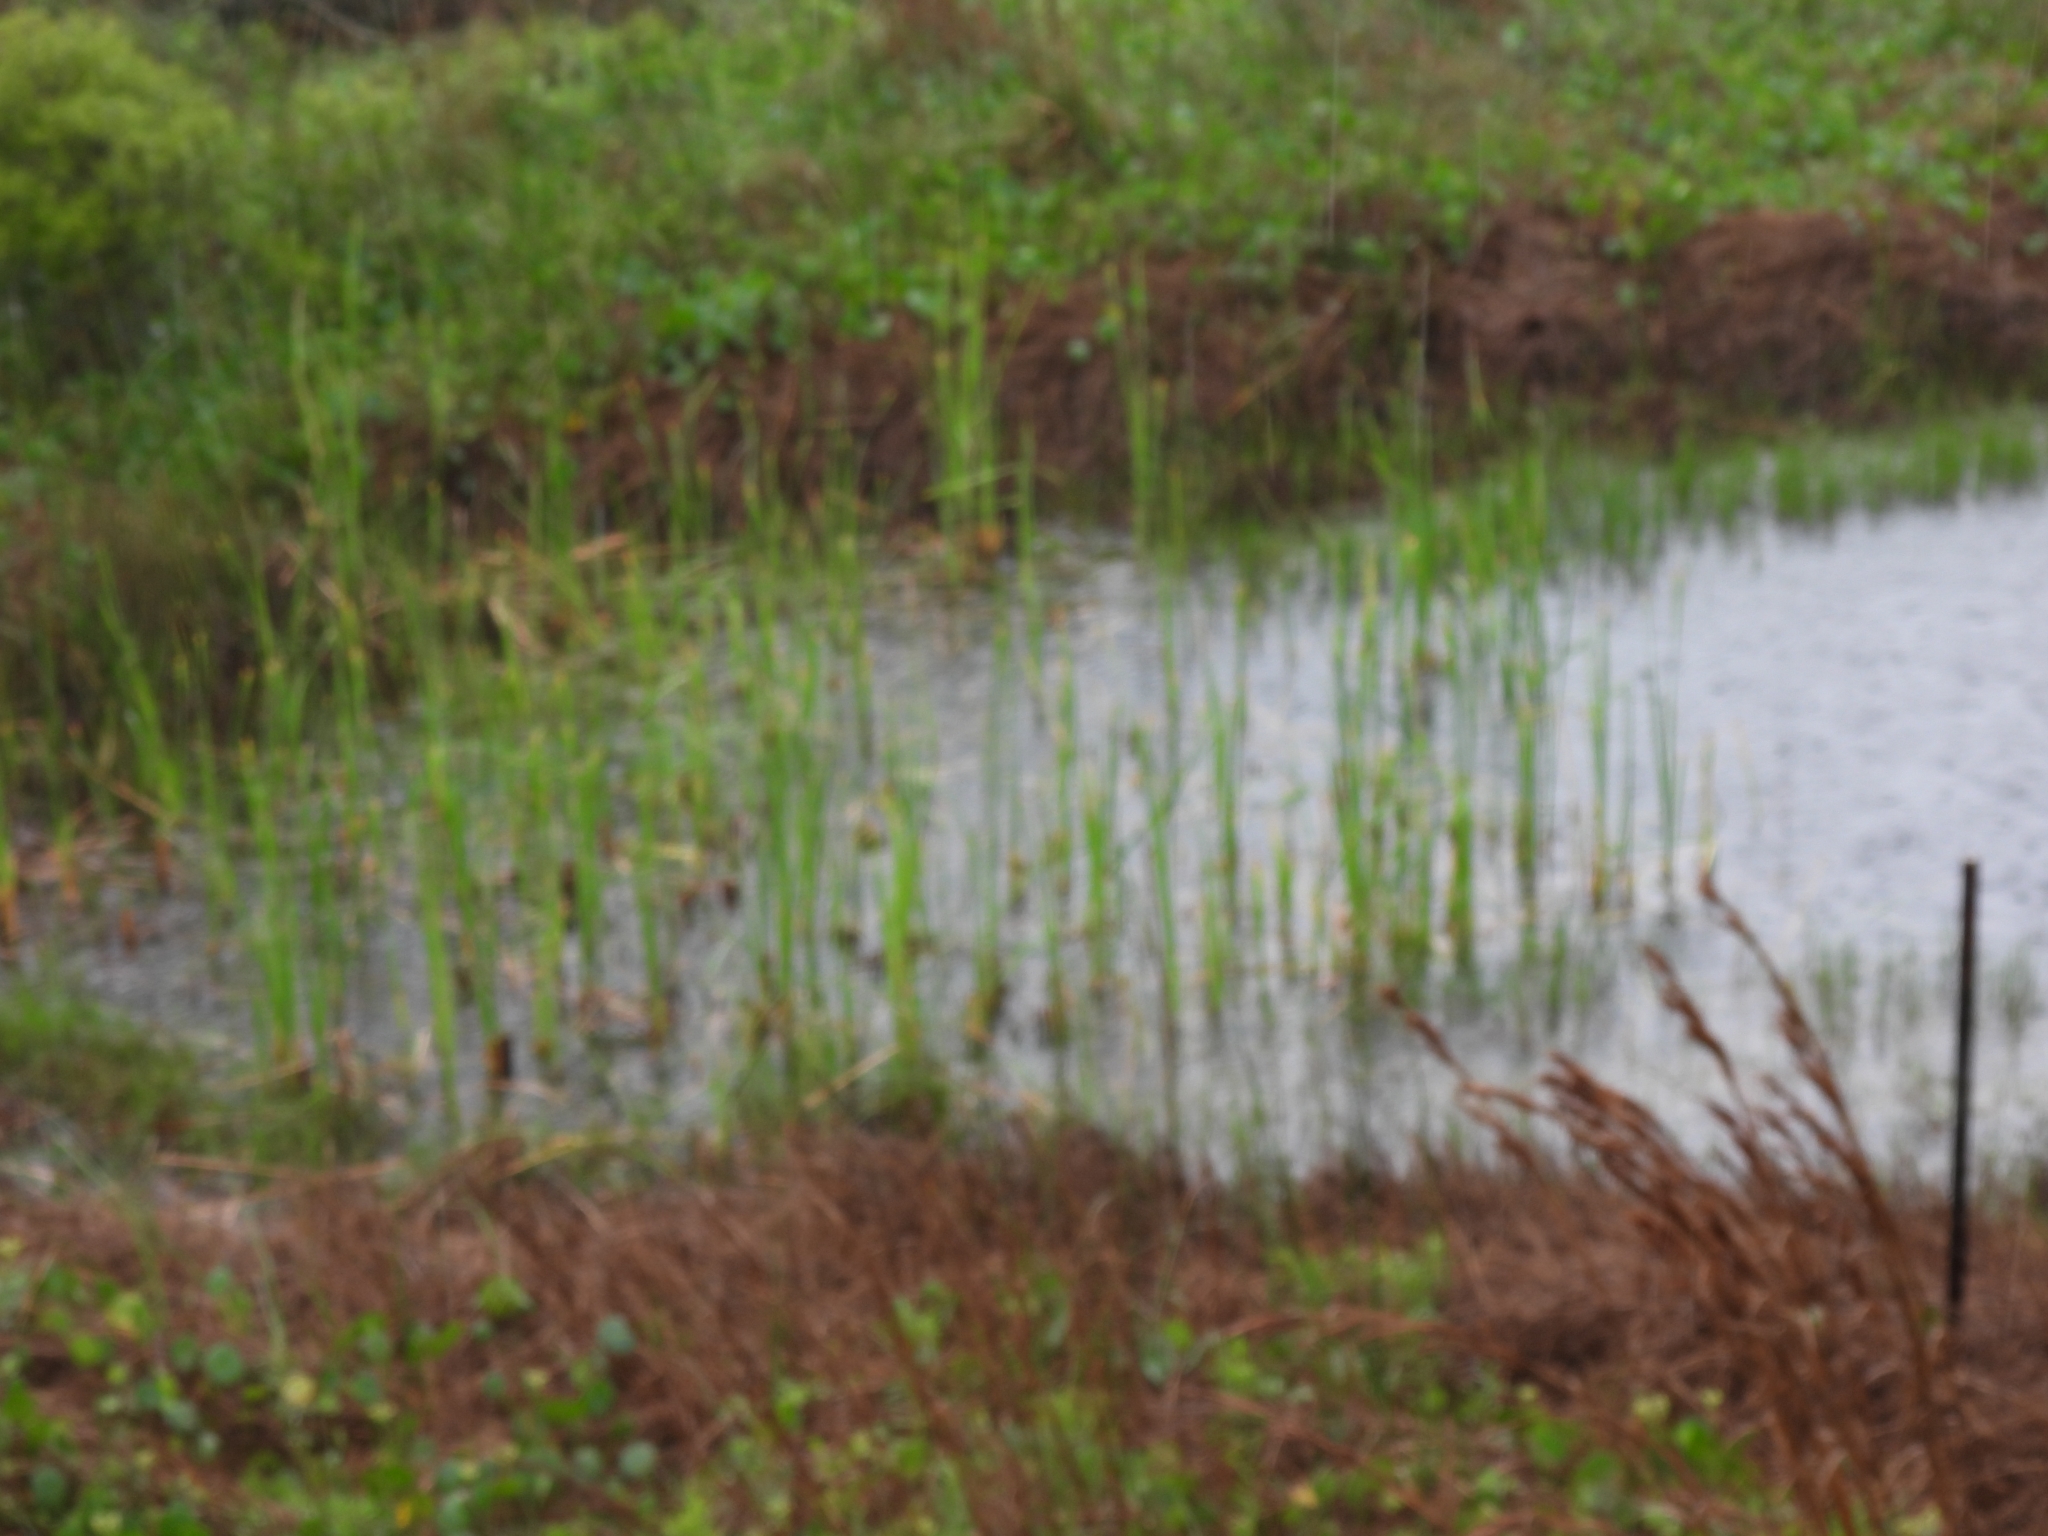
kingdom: Plantae
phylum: Tracheophyta
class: Liliopsida
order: Poales
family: Typhaceae
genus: Typha
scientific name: Typha domingensis
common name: Southern cattail
